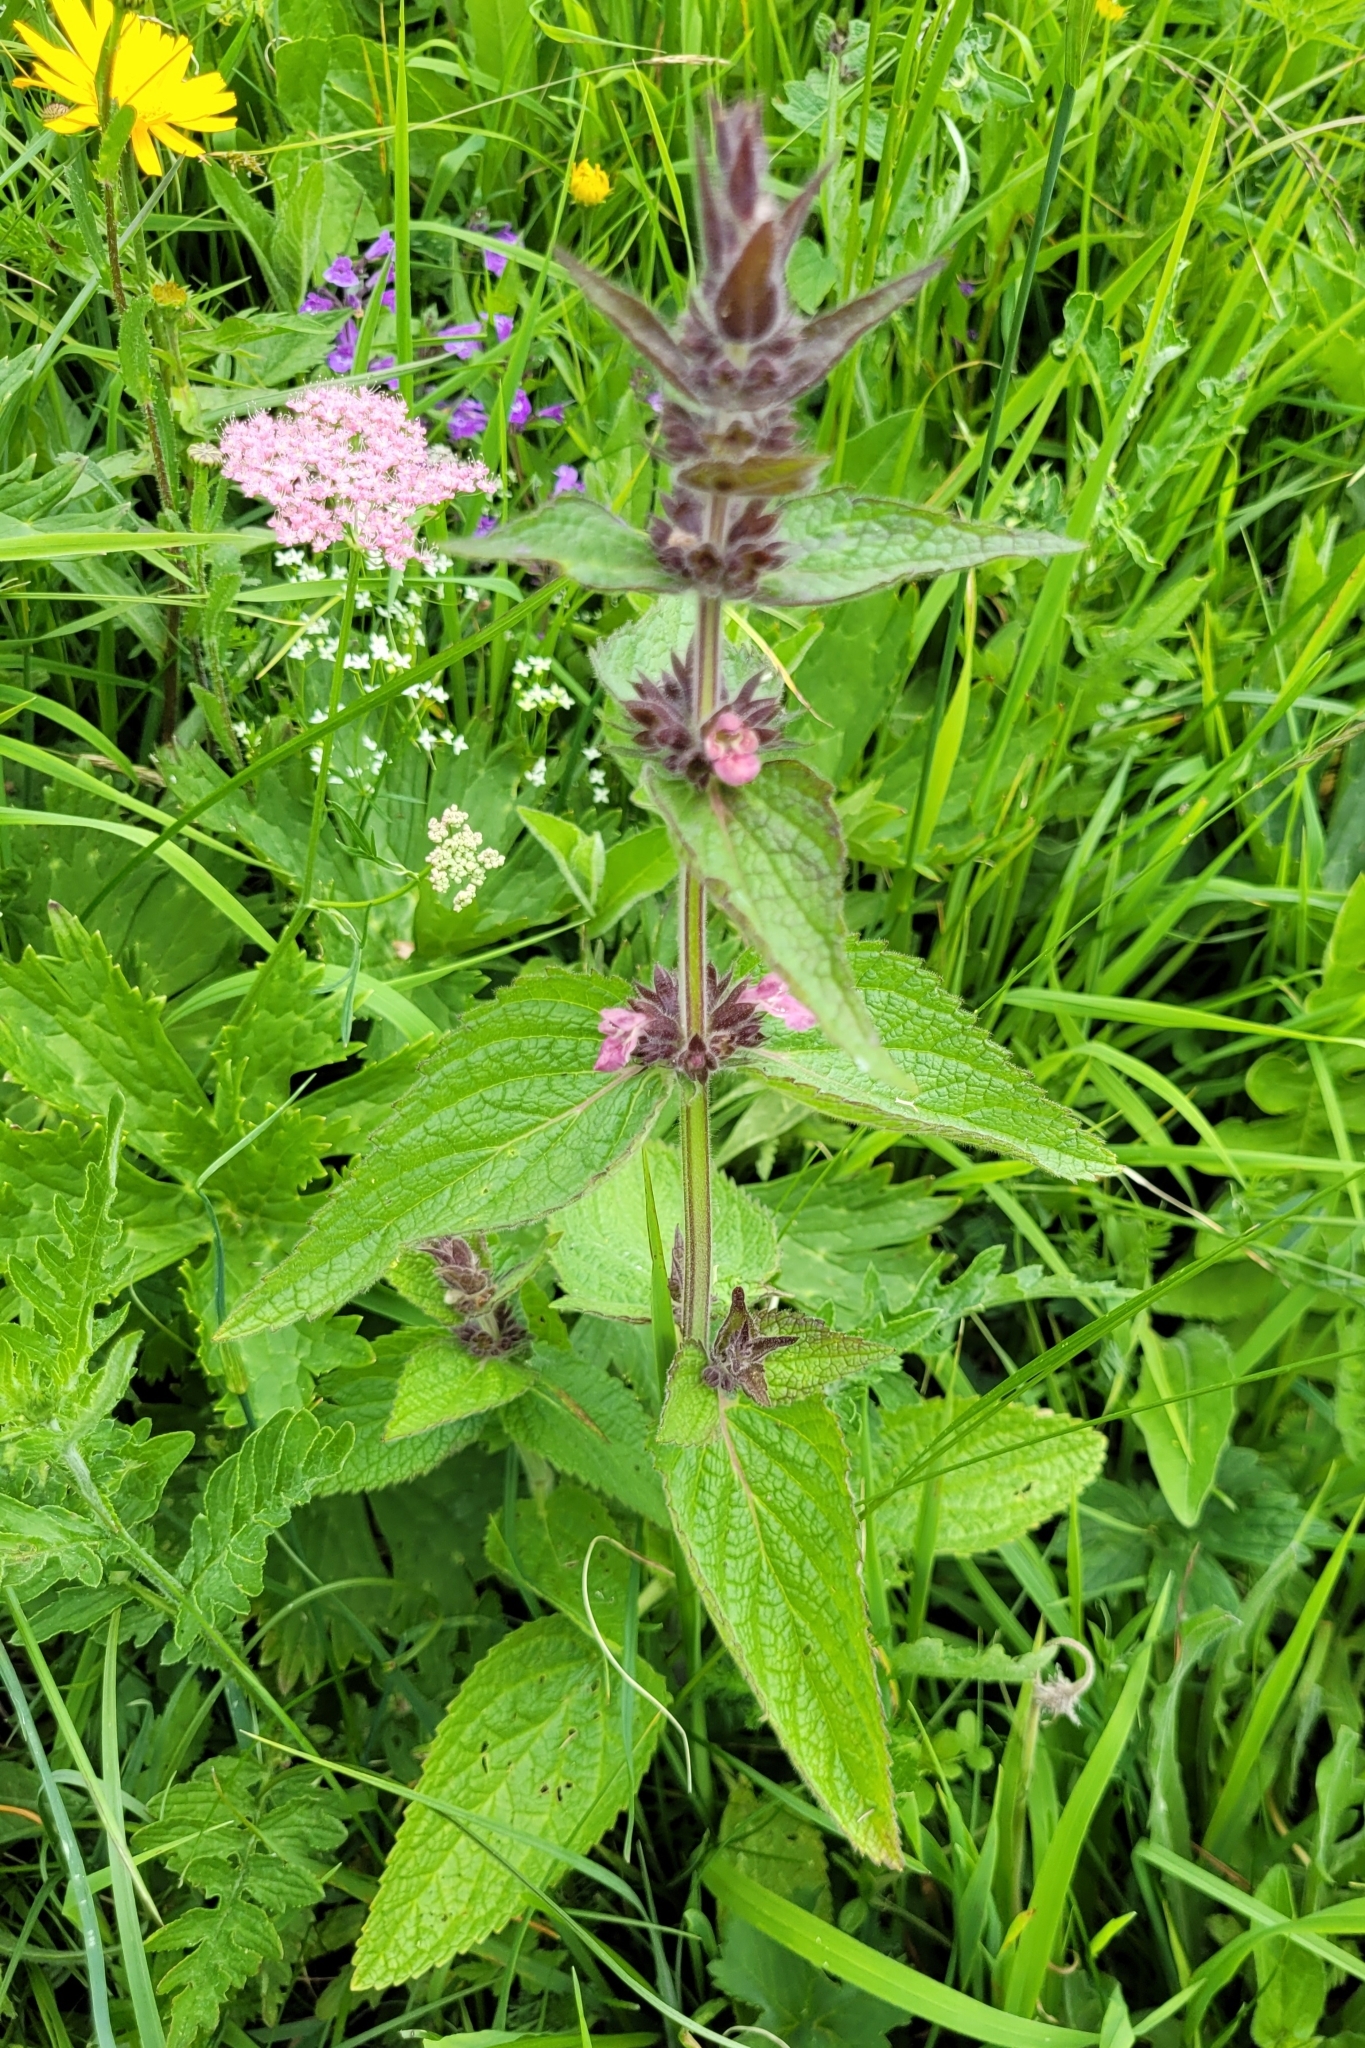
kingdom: Plantae
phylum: Tracheophyta
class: Magnoliopsida
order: Lamiales
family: Lamiaceae
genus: Stachys
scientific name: Stachys alpina
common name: Limestone woundwort
